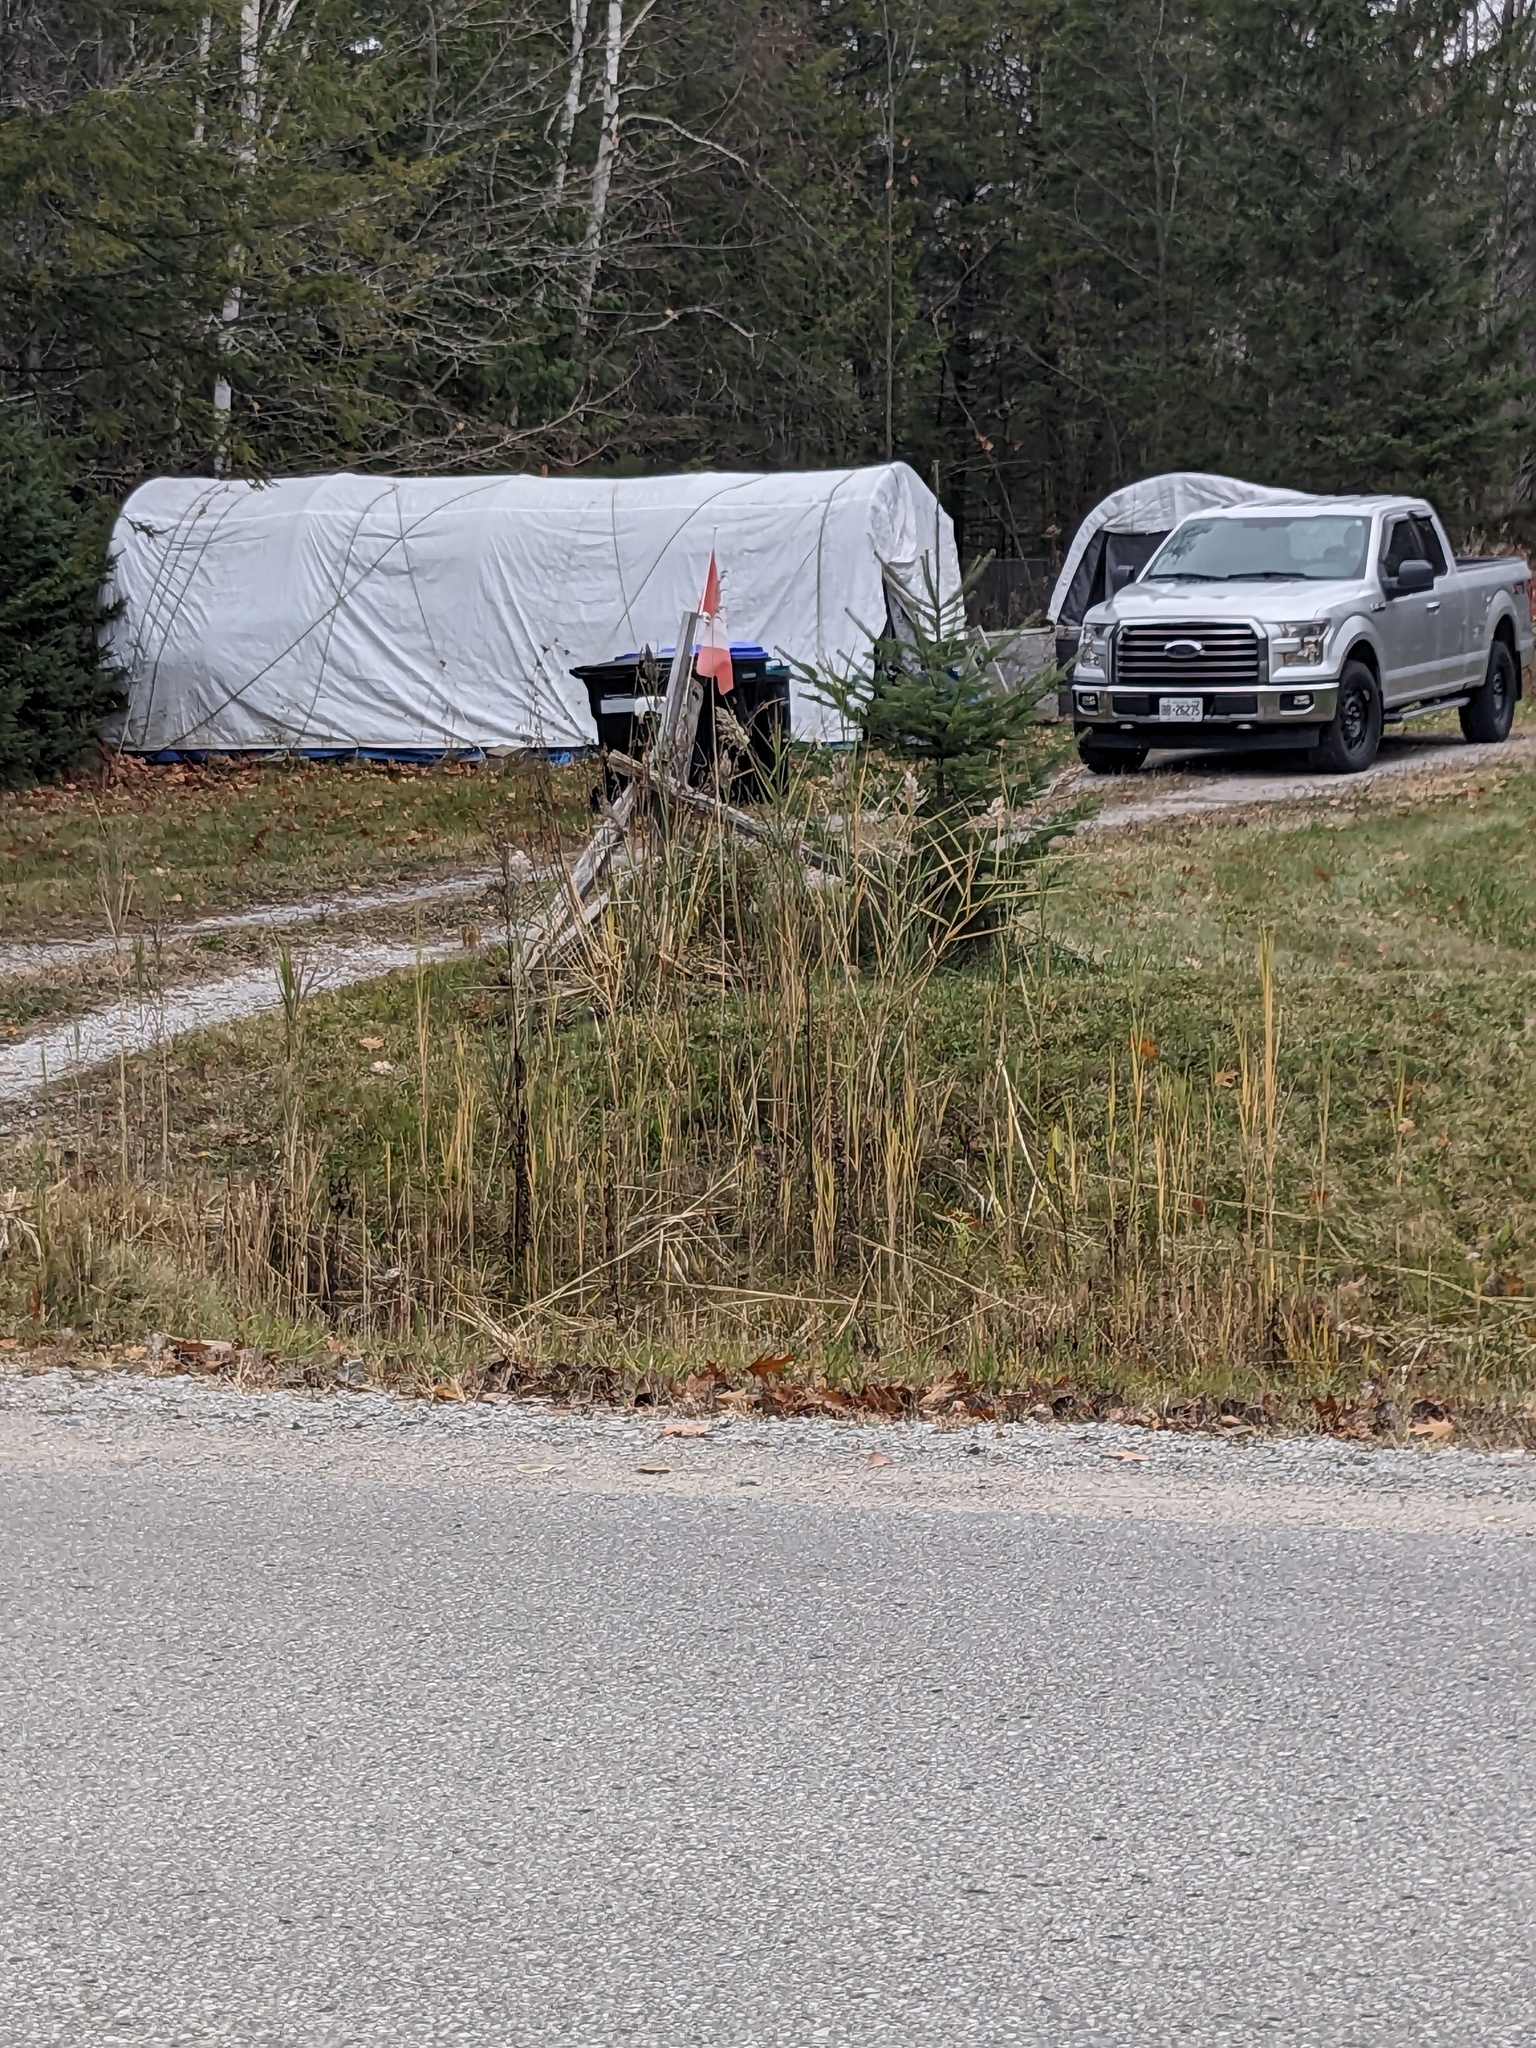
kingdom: Plantae
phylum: Tracheophyta
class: Liliopsida
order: Poales
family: Poaceae
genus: Phragmites
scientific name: Phragmites australis
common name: Common reed
